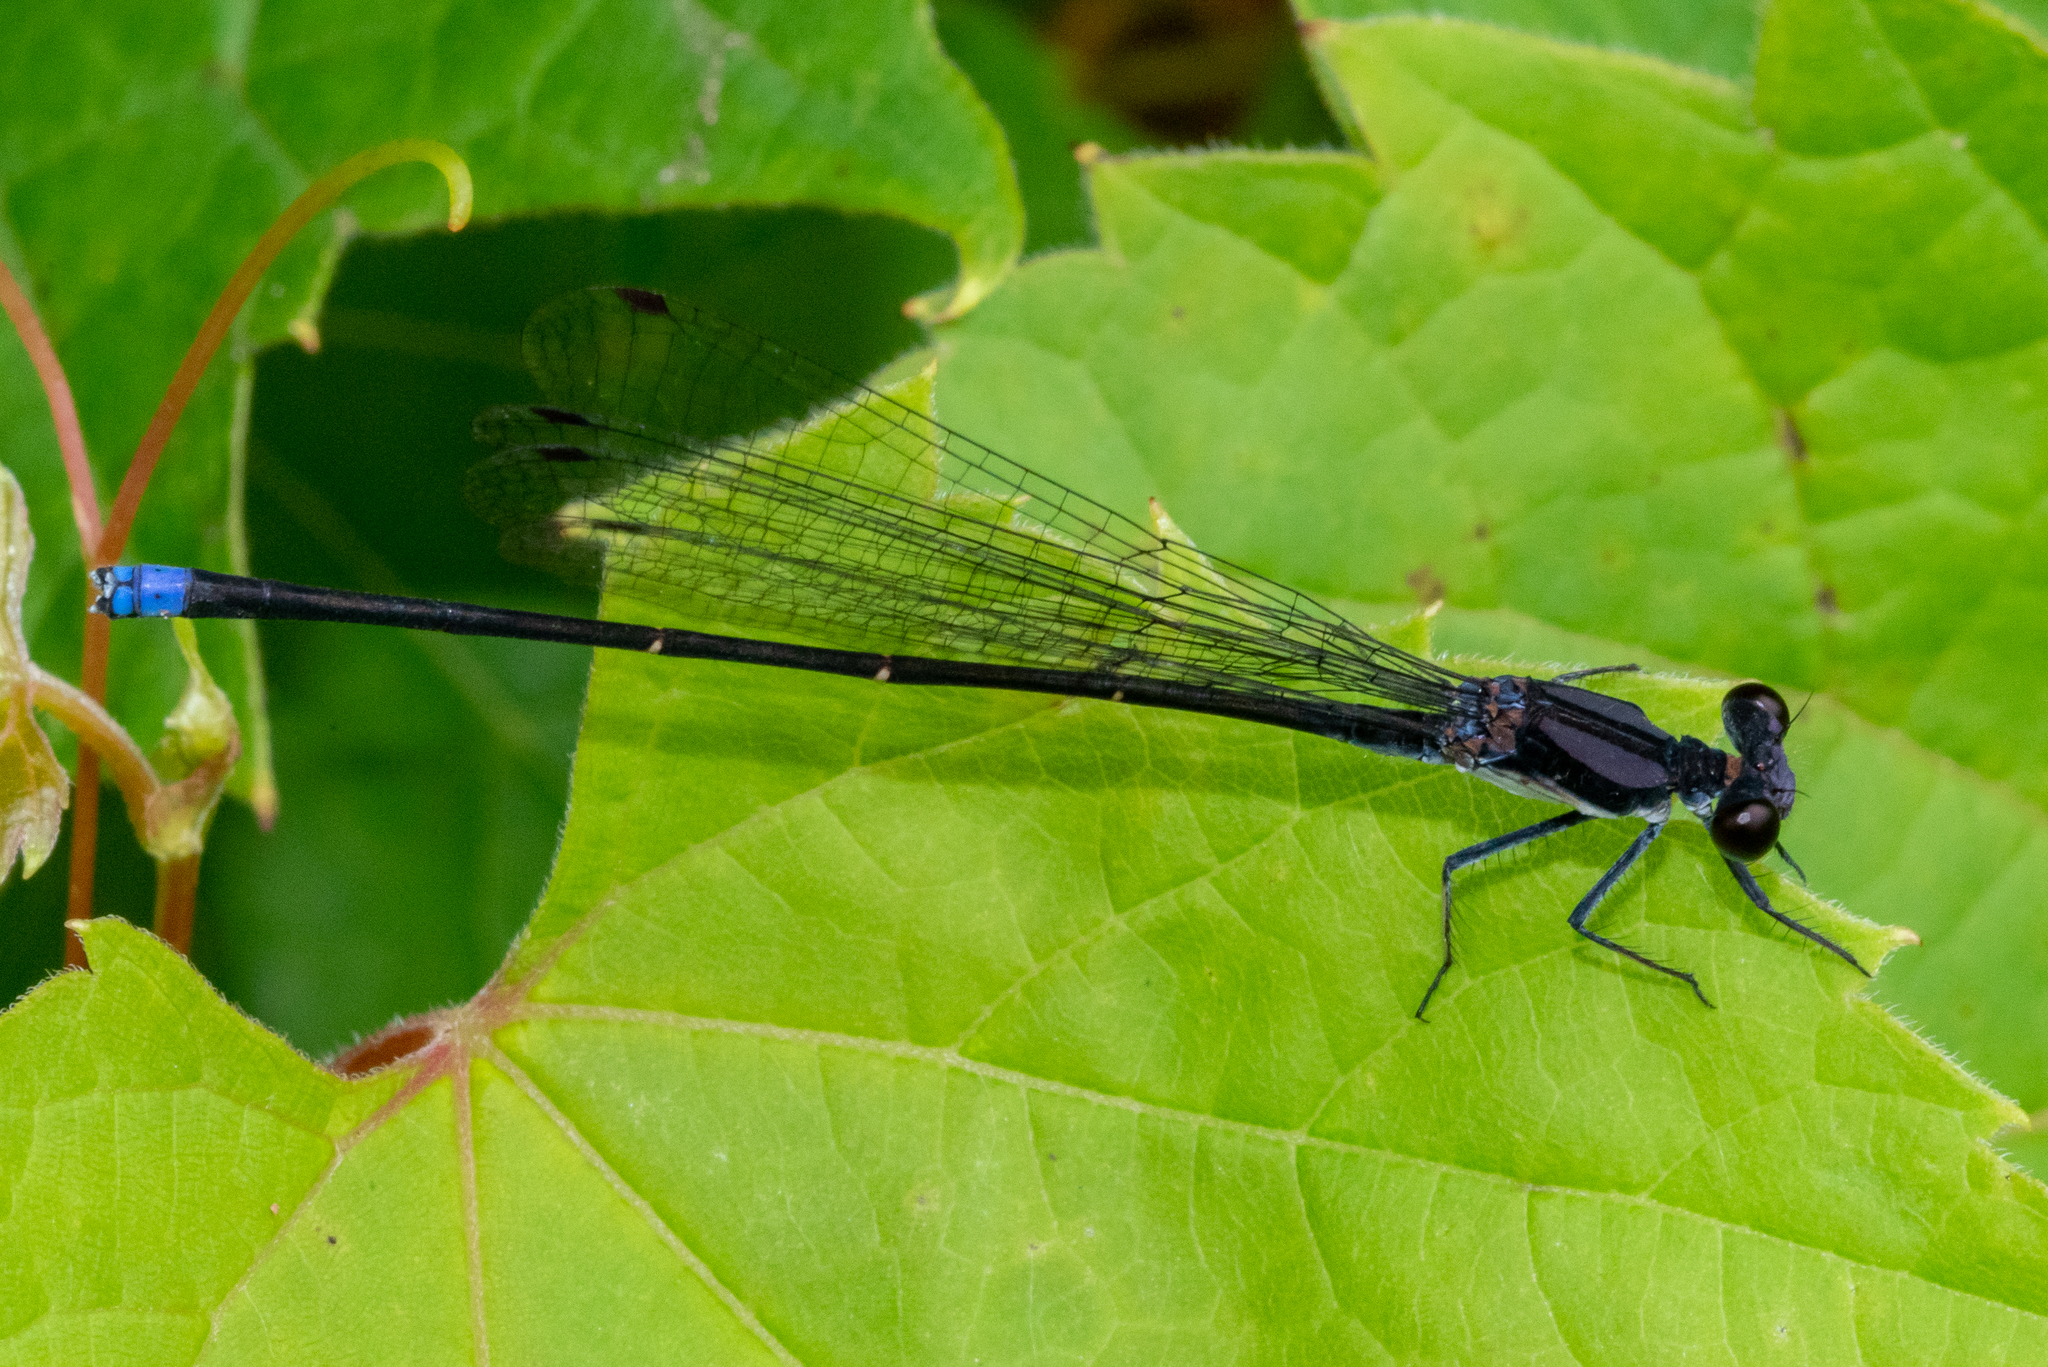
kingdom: Animalia
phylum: Arthropoda
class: Insecta
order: Odonata
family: Coenagrionidae
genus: Argia
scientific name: Argia tibialis
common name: Blue-tipped dancer
